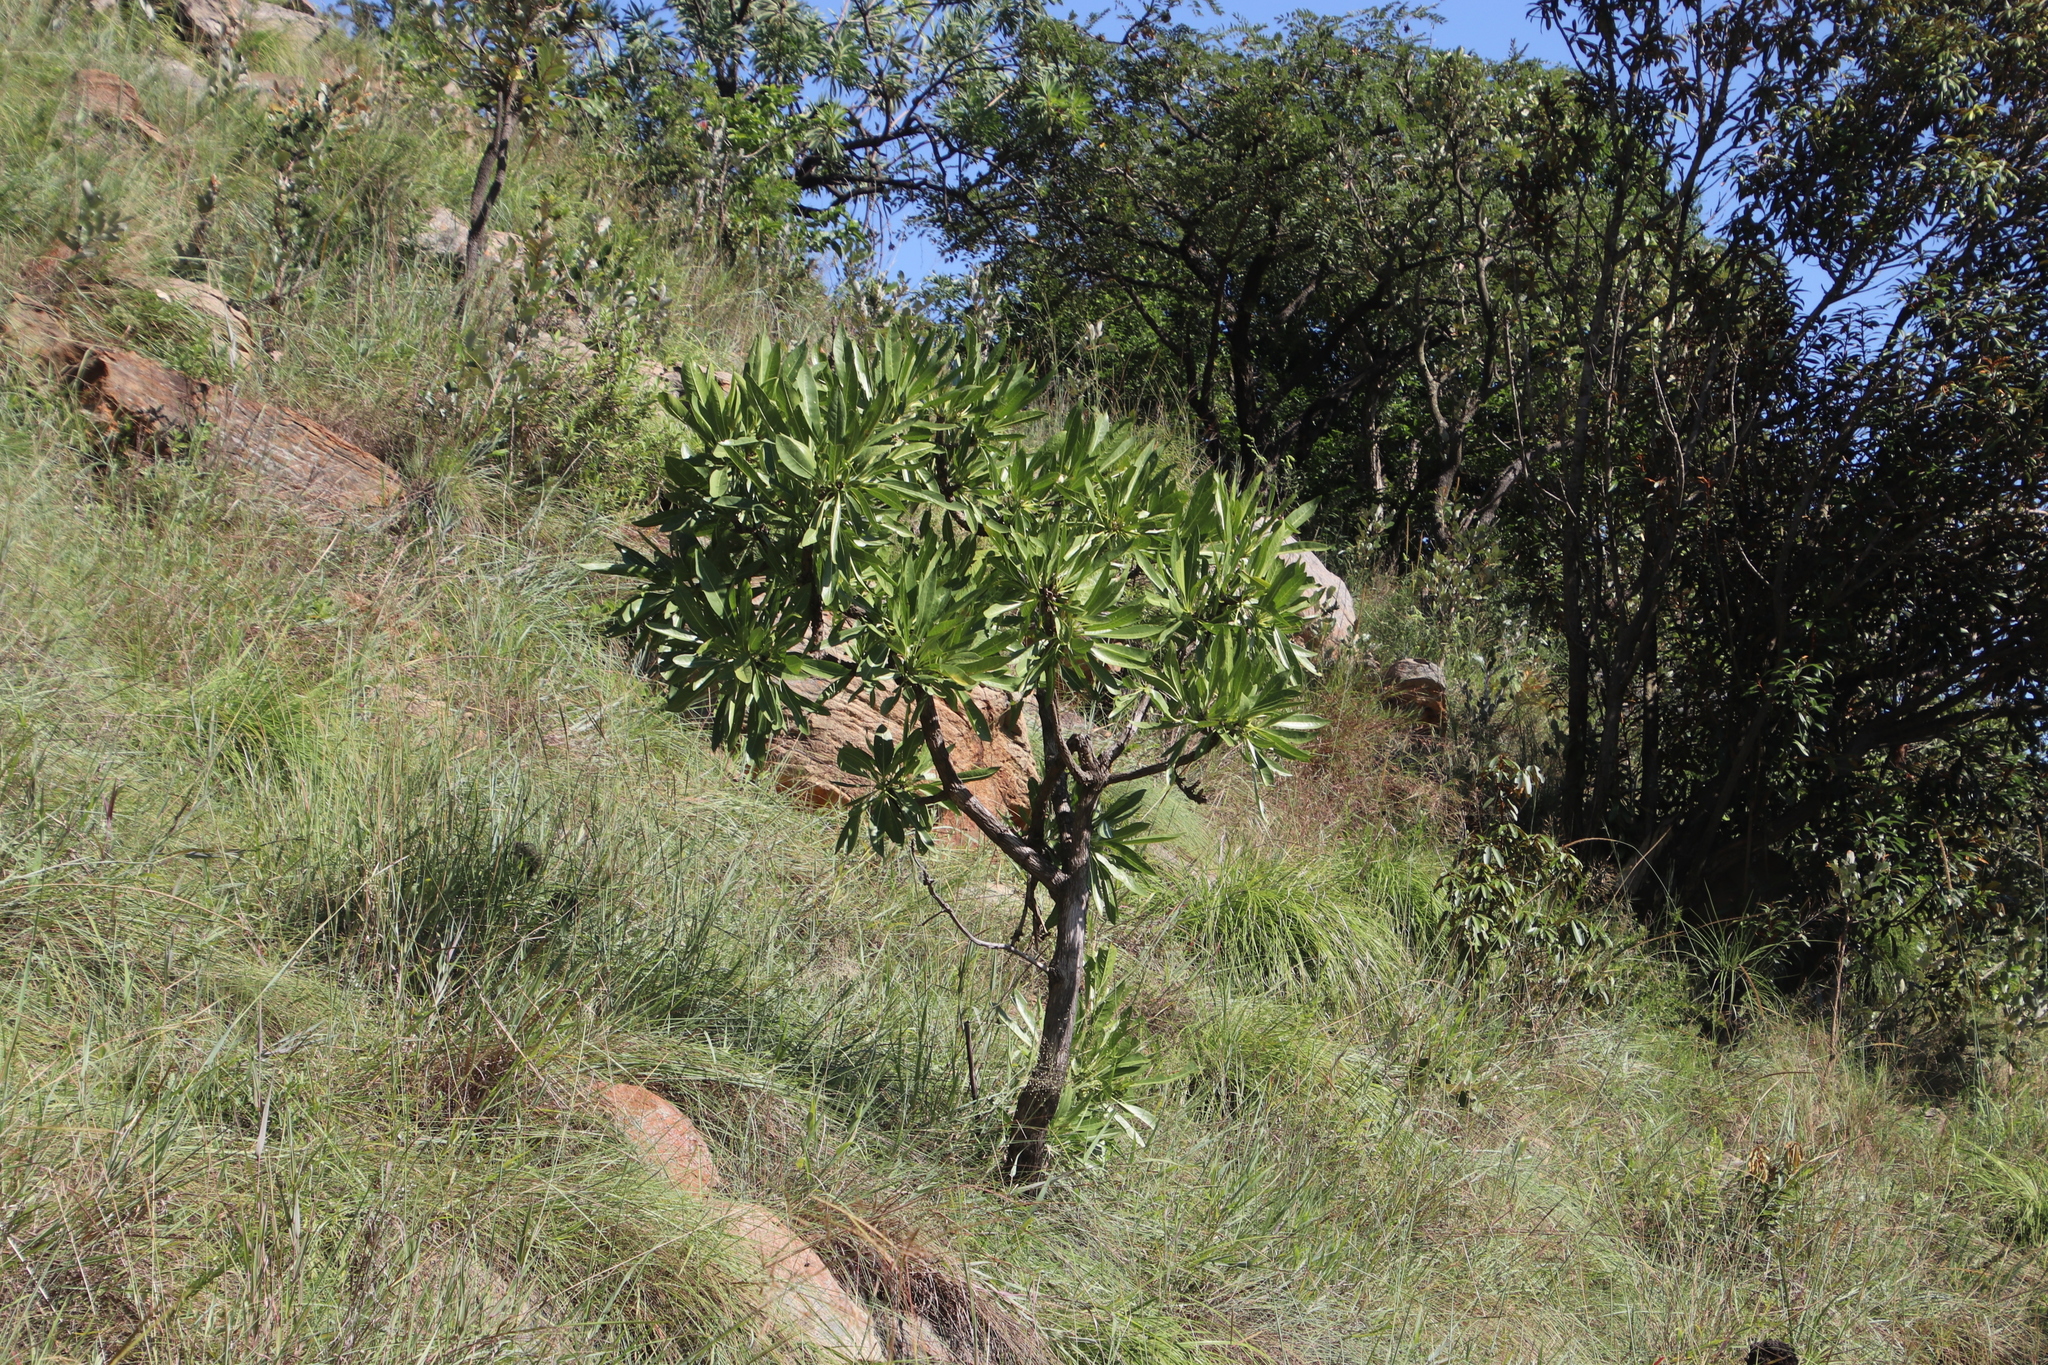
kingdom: Plantae
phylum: Tracheophyta
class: Magnoliopsida
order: Gentianales
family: Rubiaceae
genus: Pavetta
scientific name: Pavetta edentula
